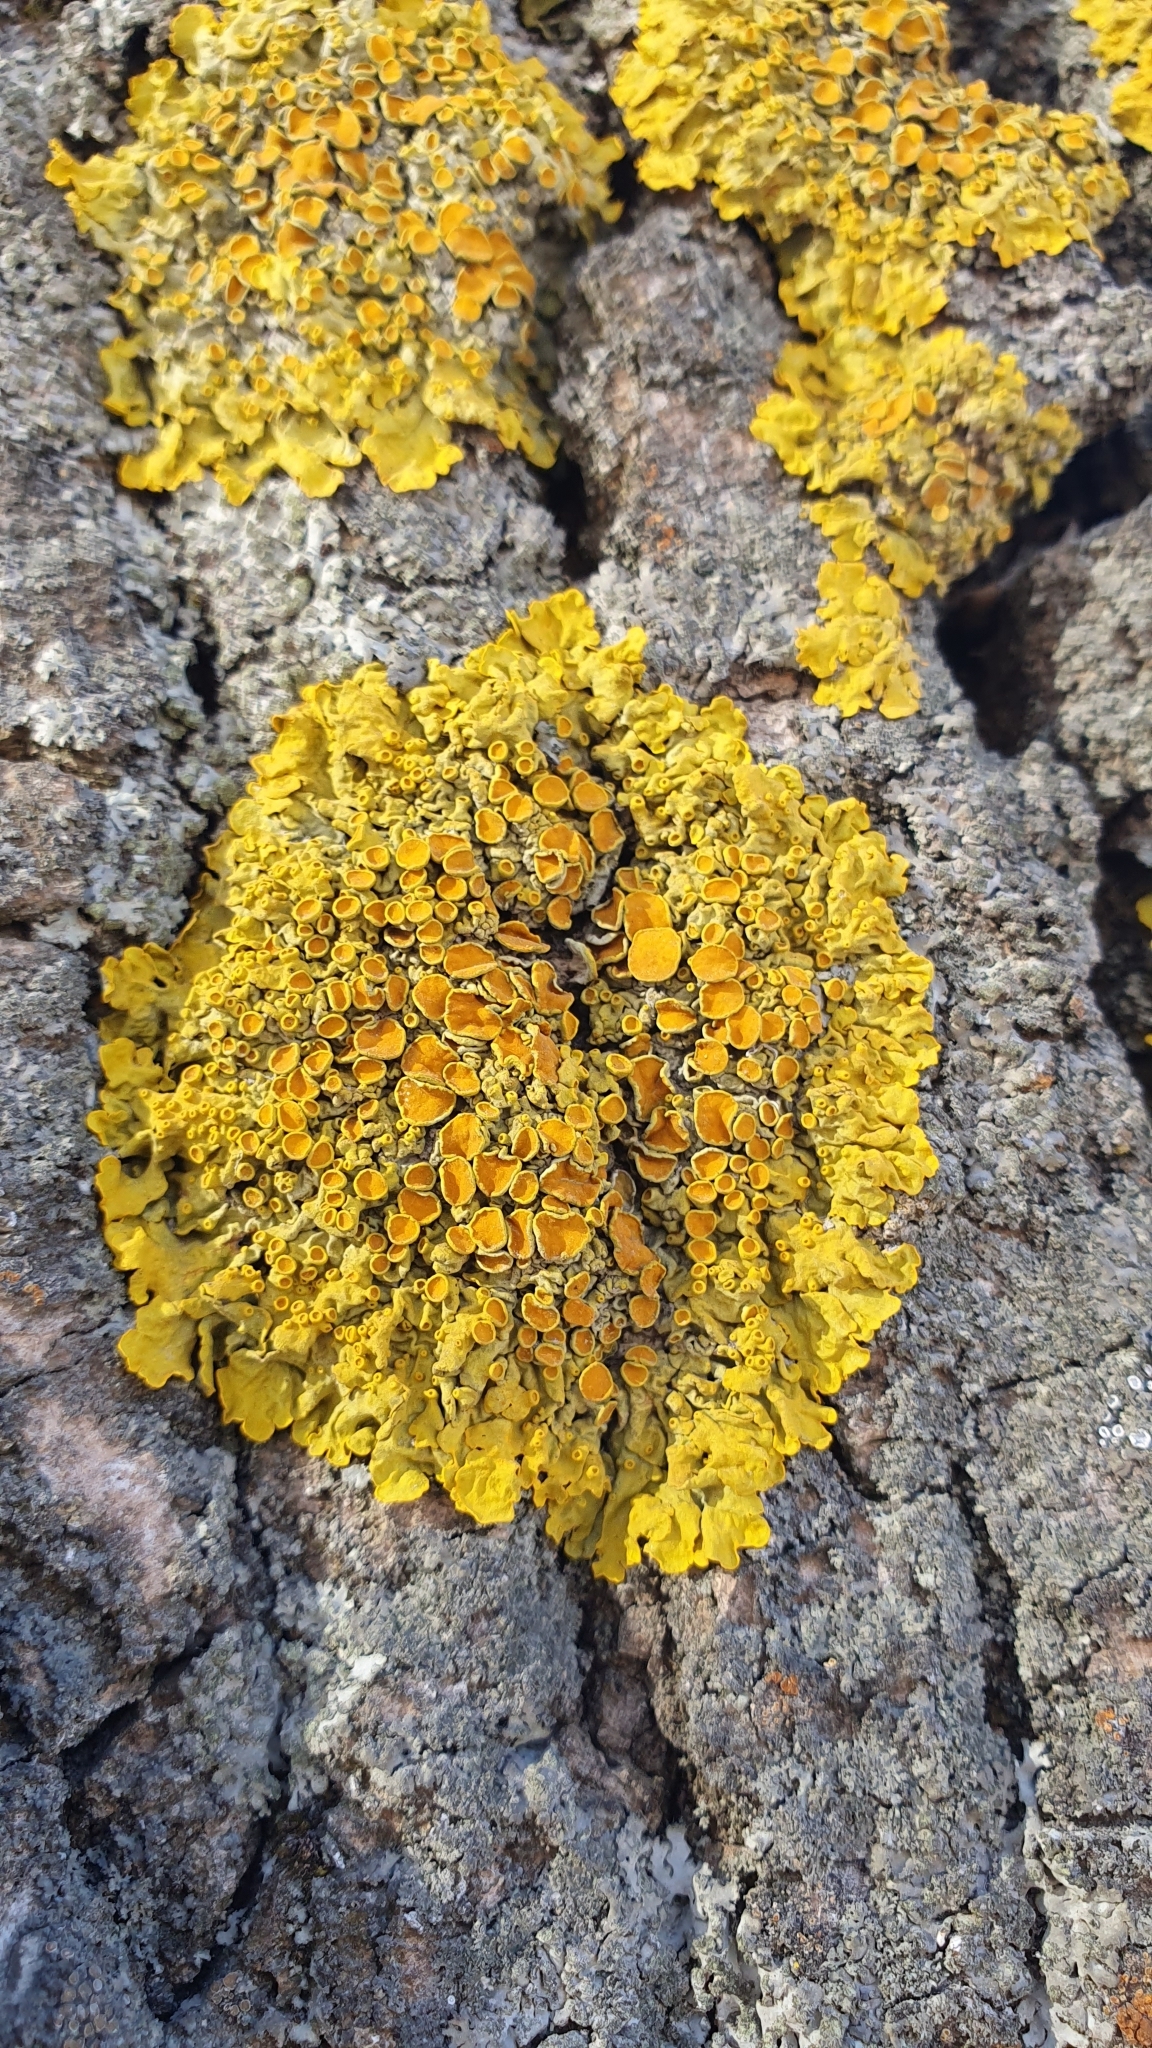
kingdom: Fungi
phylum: Ascomycota
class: Lecanoromycetes
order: Teloschistales
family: Teloschistaceae
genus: Xanthoria
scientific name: Xanthoria parietina
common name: Common orange lichen
